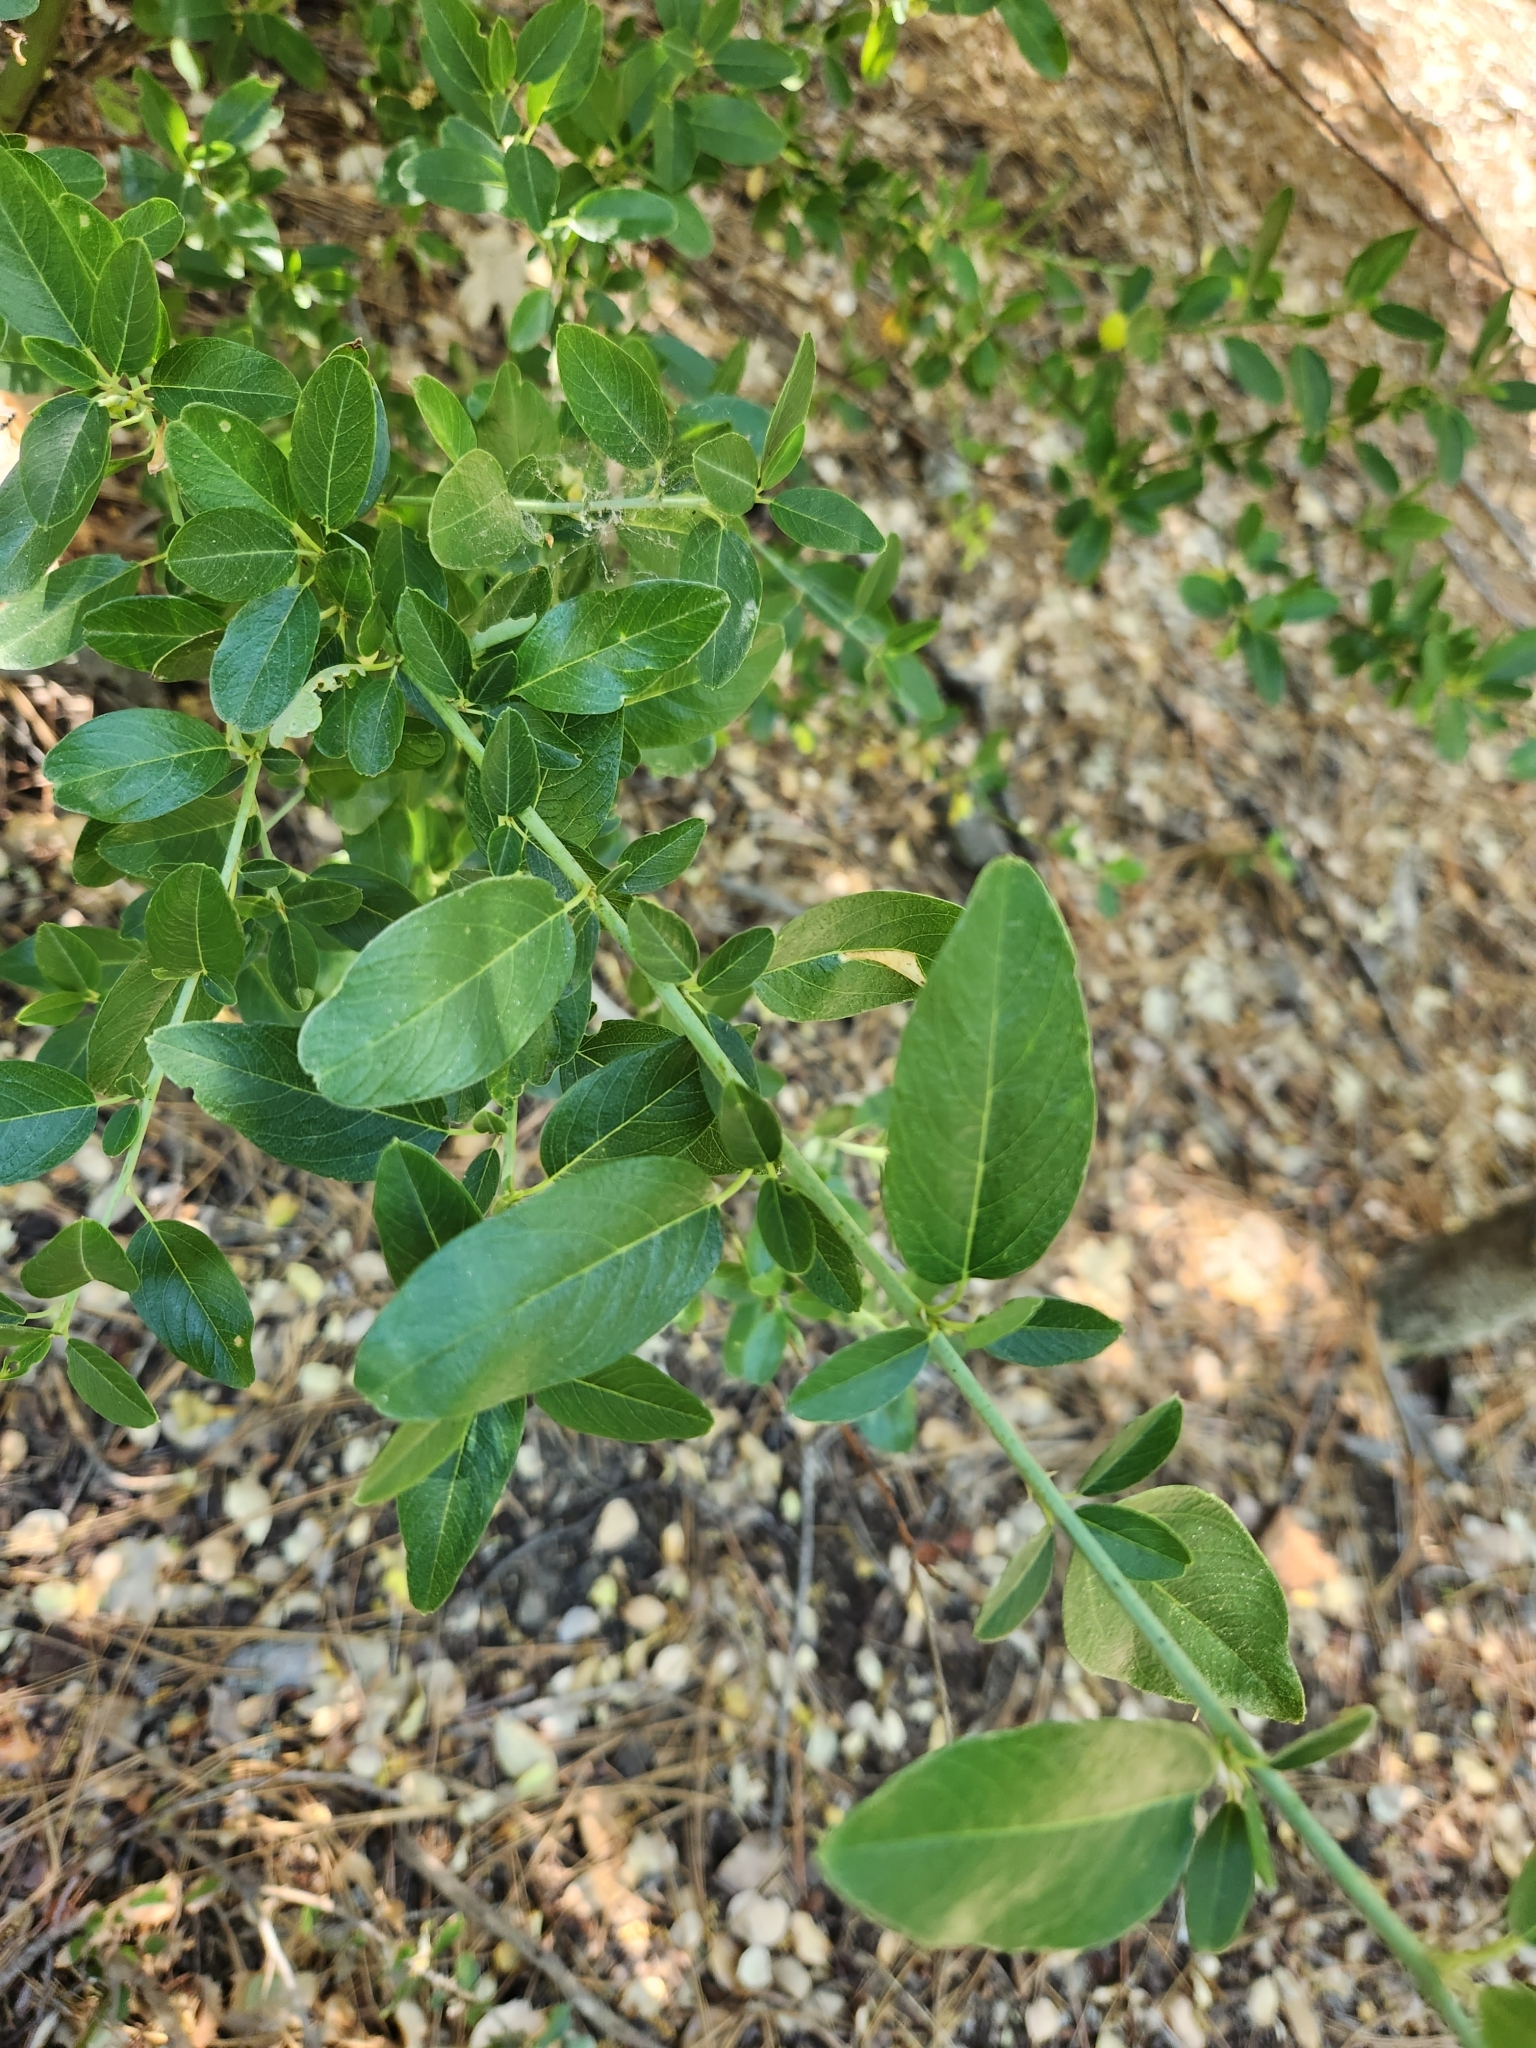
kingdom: Plantae
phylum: Tracheophyta
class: Magnoliopsida
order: Rosales
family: Rhamnaceae
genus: Ceanothus
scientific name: Ceanothus palmeri
